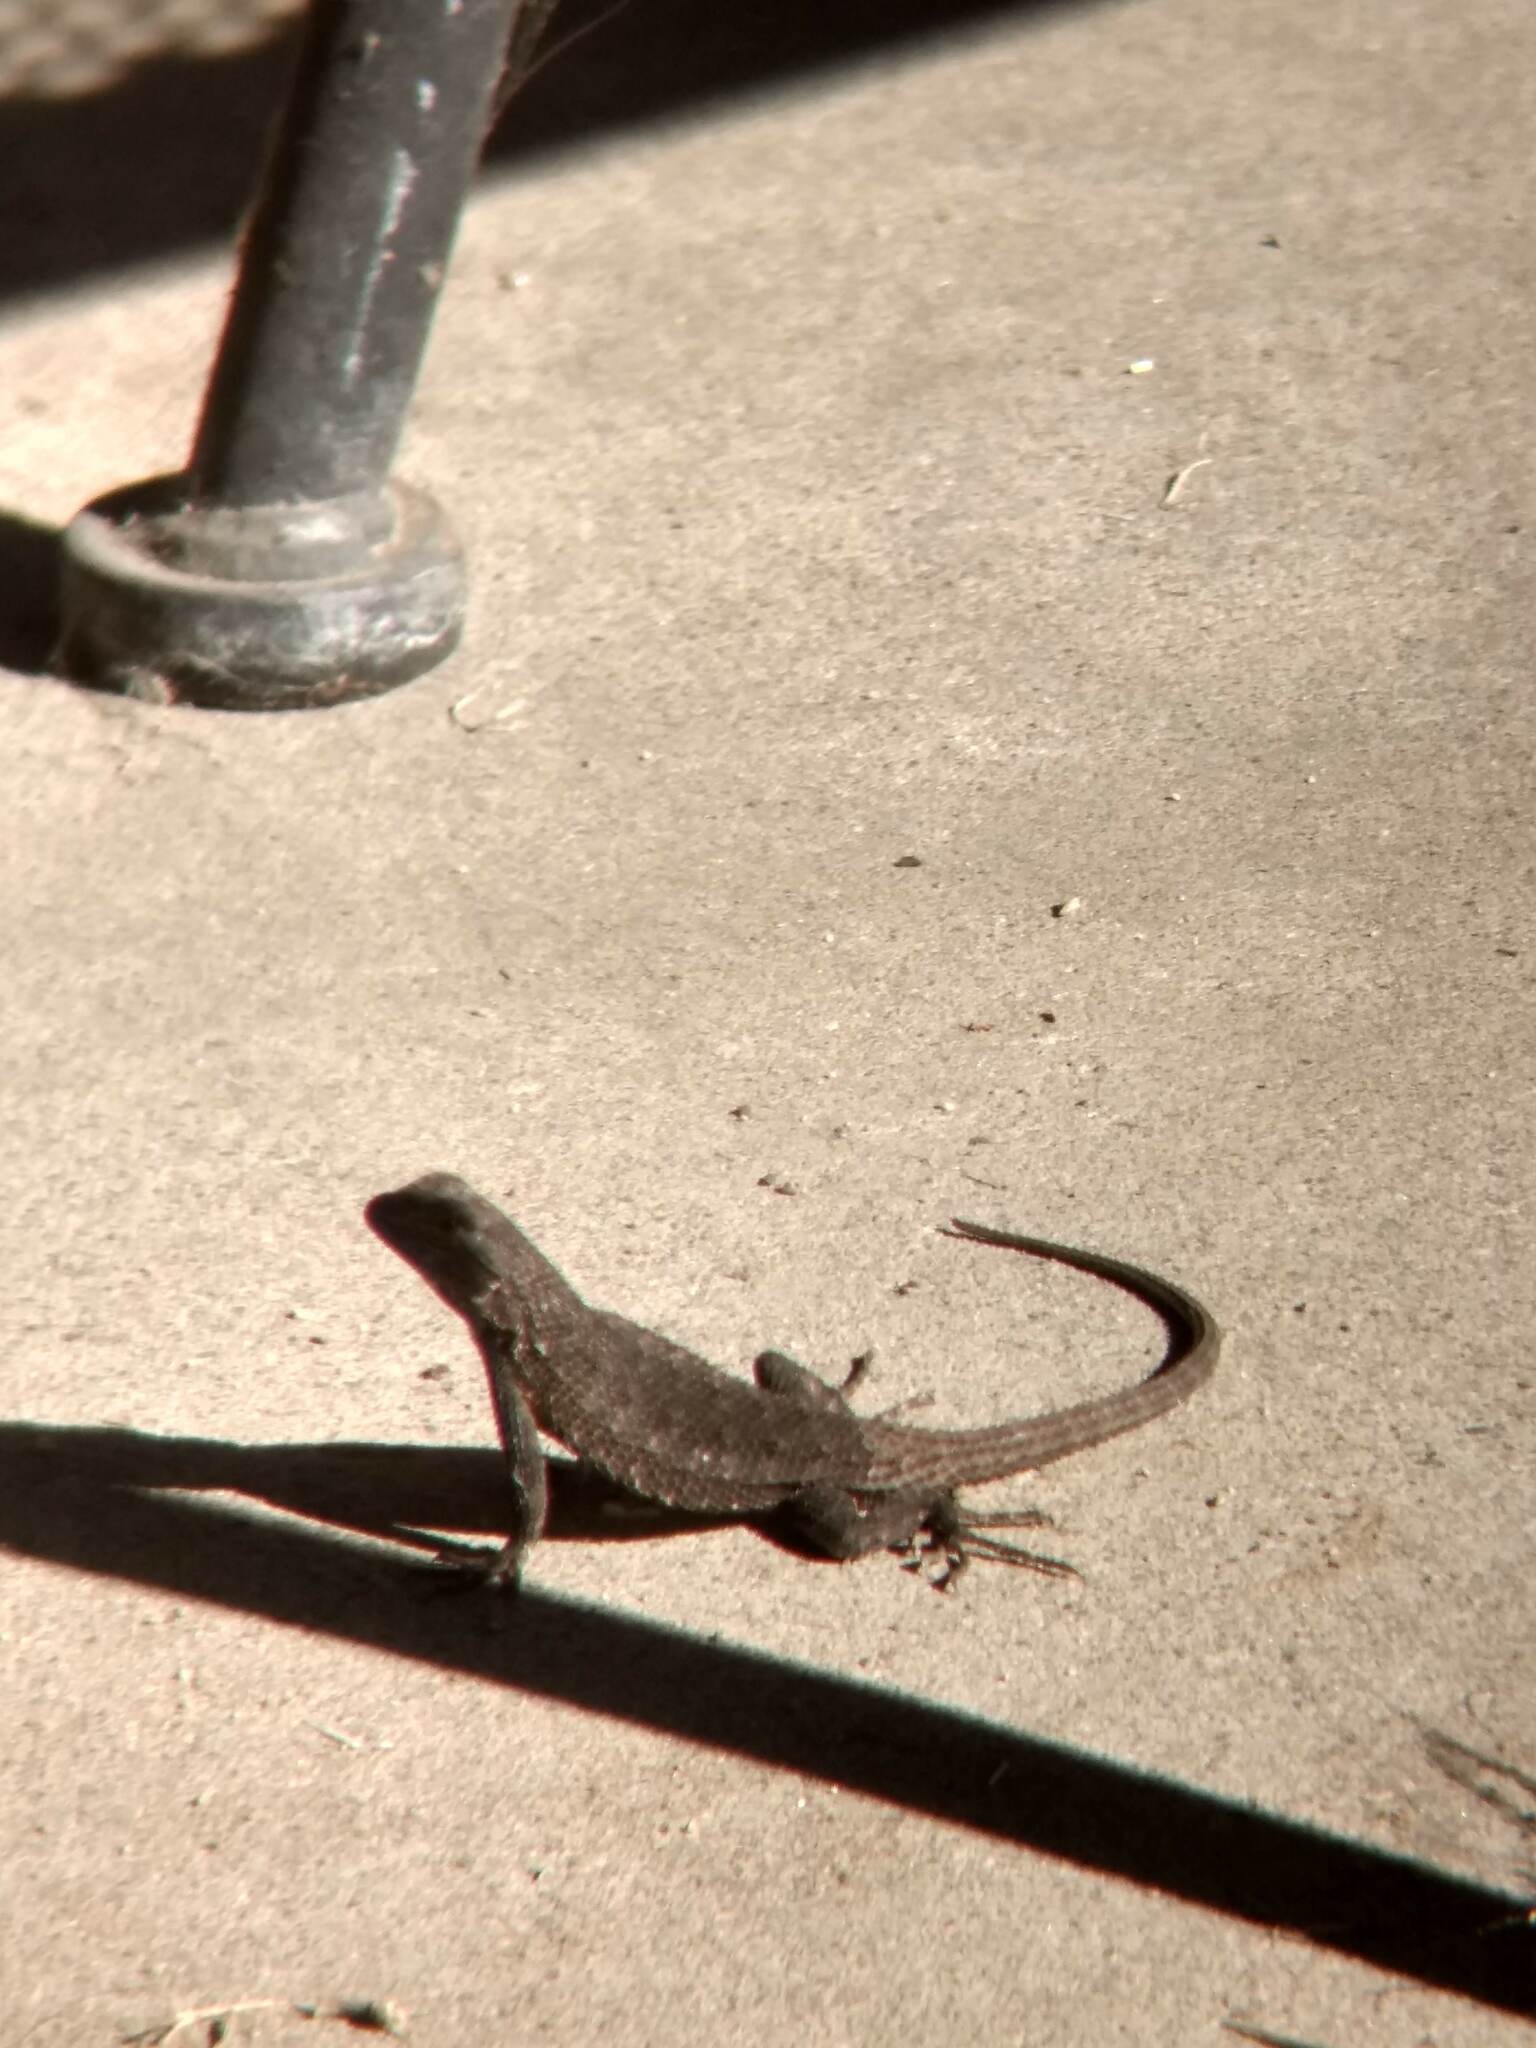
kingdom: Animalia
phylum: Chordata
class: Squamata
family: Phrynosomatidae
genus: Sceloporus
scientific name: Sceloporus occidentalis
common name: Western fence lizard
